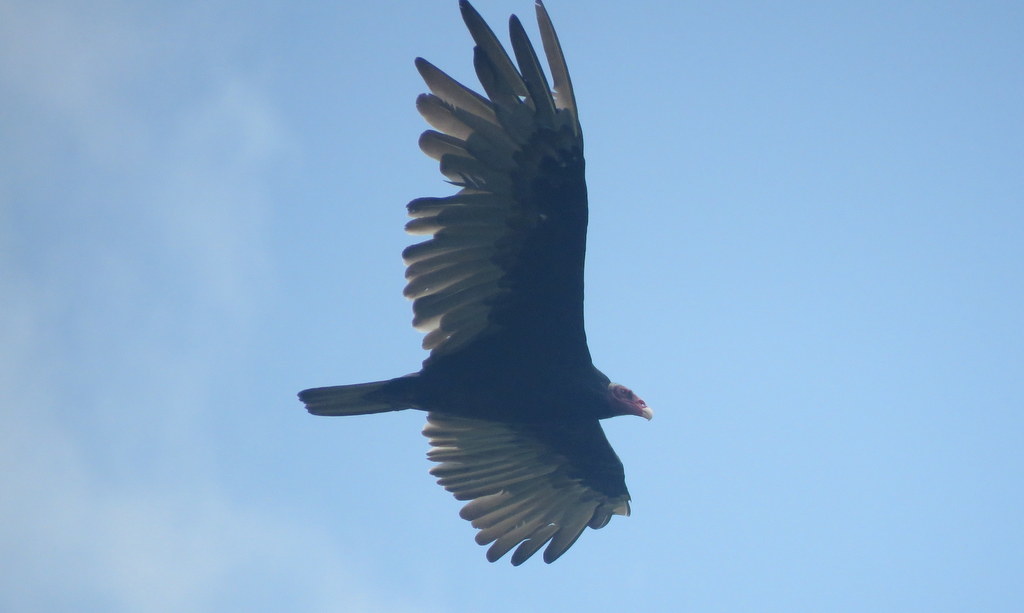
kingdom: Animalia
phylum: Chordata
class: Aves
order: Accipitriformes
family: Cathartidae
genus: Cathartes
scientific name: Cathartes aura
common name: Turkey vulture
